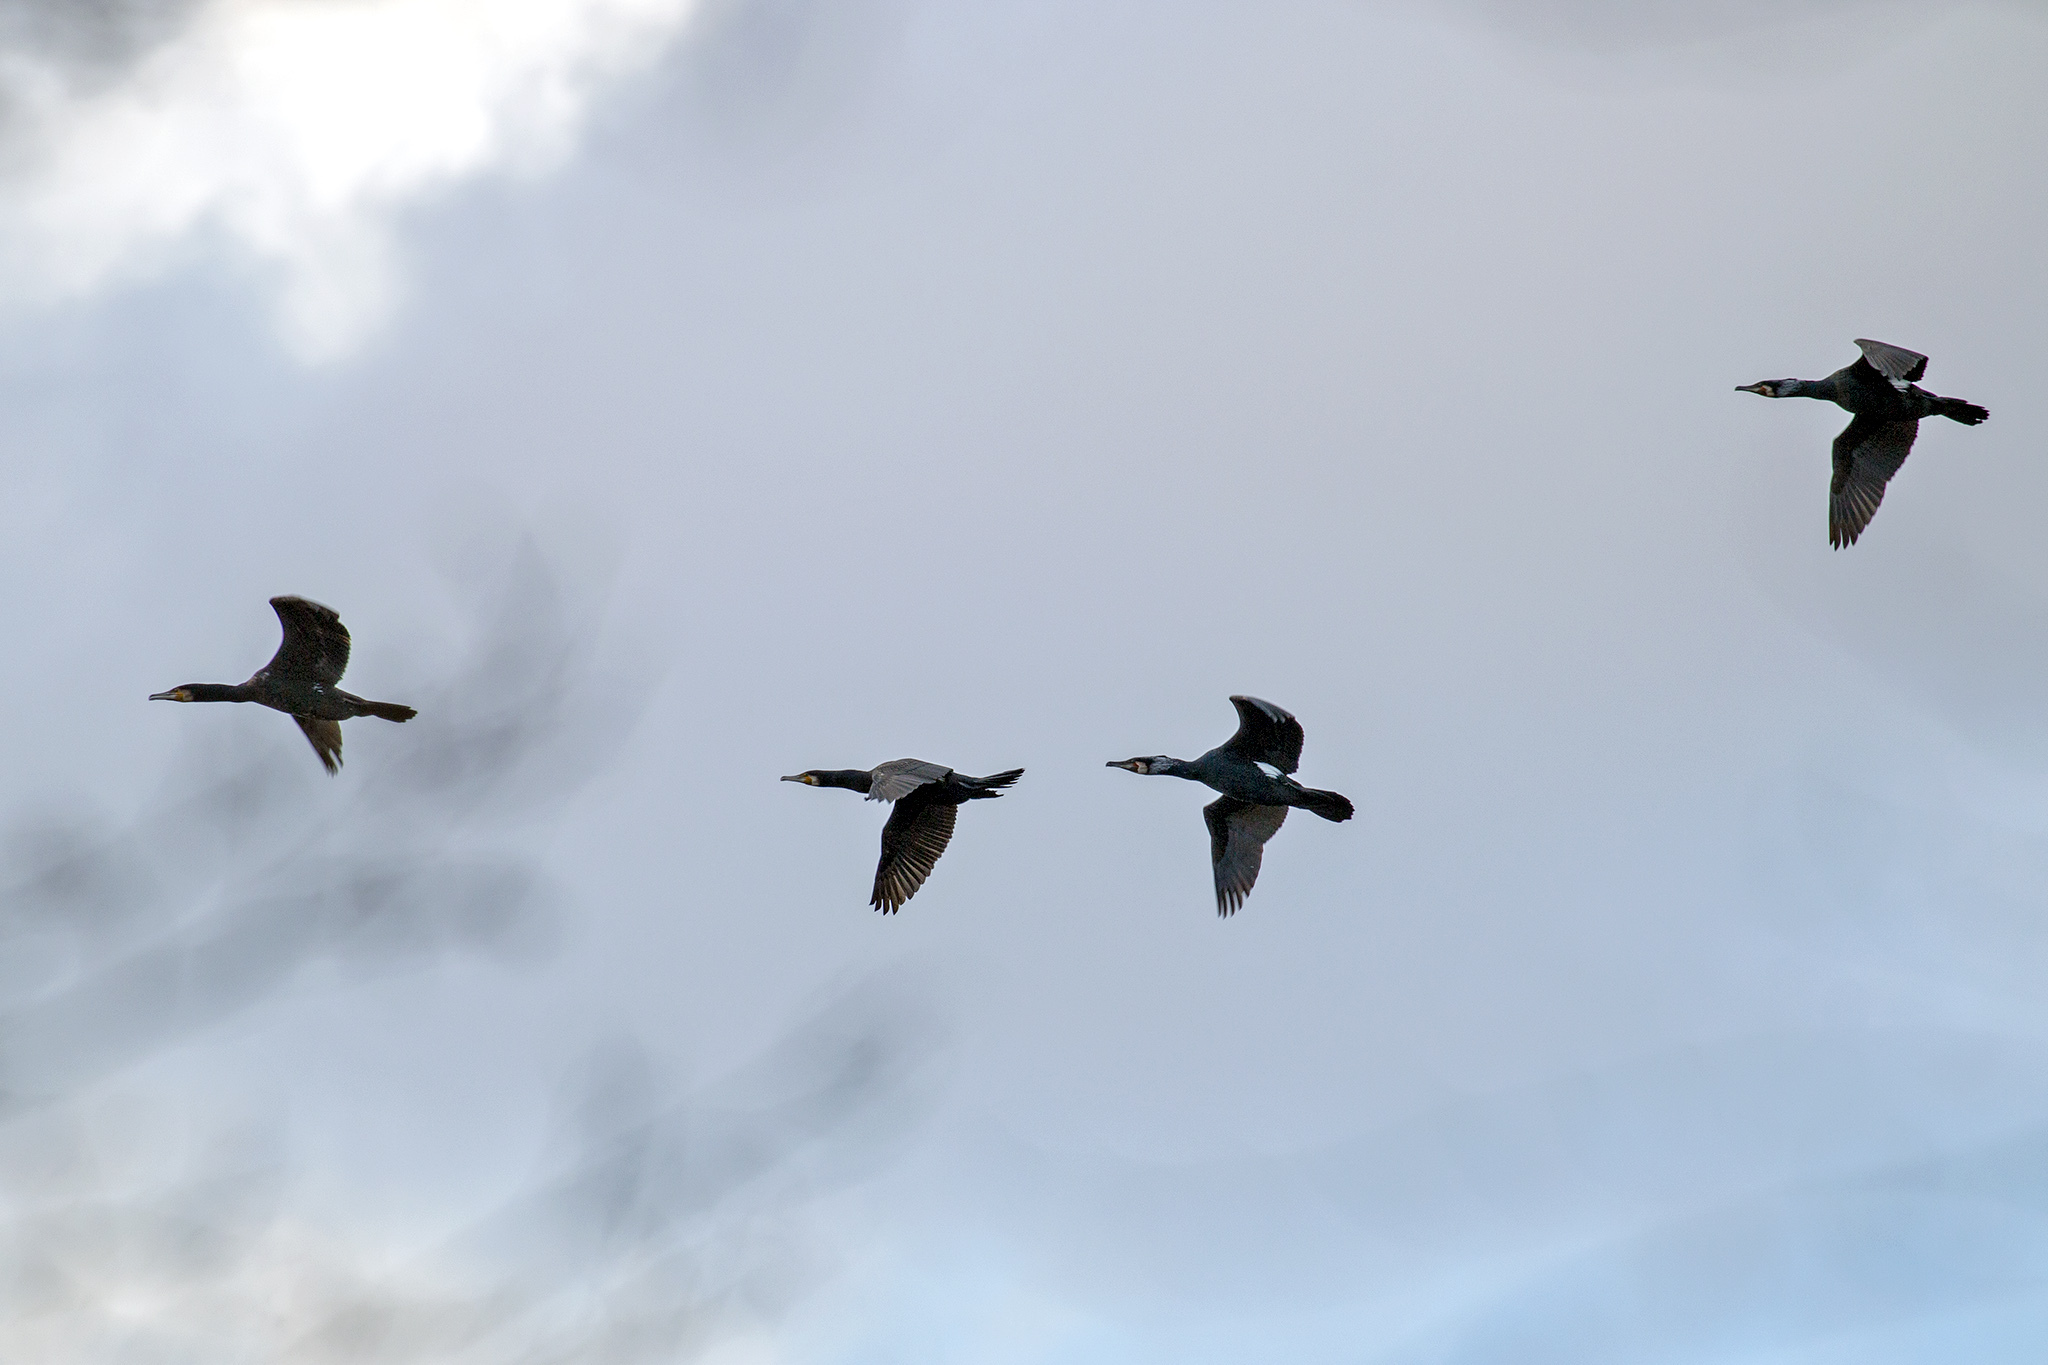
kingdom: Animalia
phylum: Chordata
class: Aves
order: Suliformes
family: Phalacrocoracidae
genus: Phalacrocorax
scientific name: Phalacrocorax carbo
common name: Great cormorant
